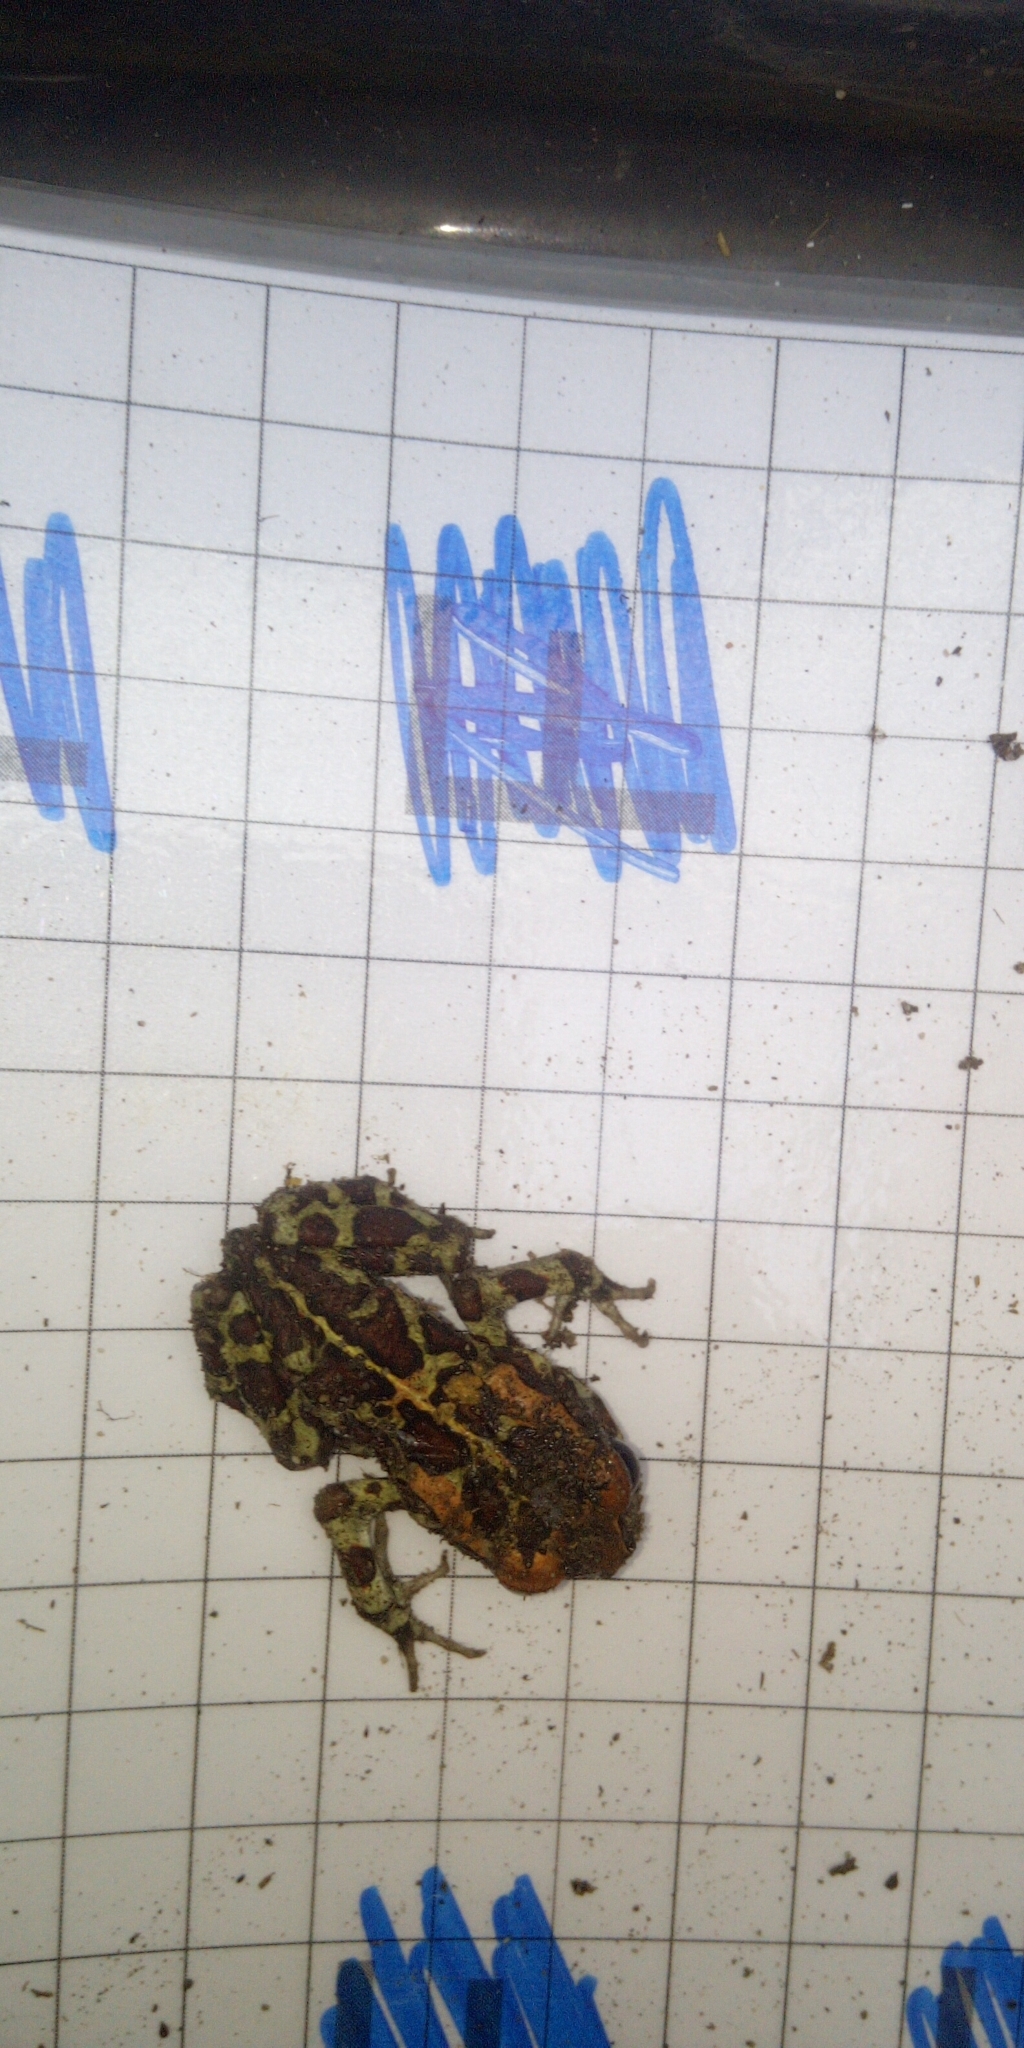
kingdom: Animalia
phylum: Chordata
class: Amphibia
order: Anura
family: Bufonidae
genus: Sclerophrys
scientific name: Sclerophrys pantherina
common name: Panther toad
